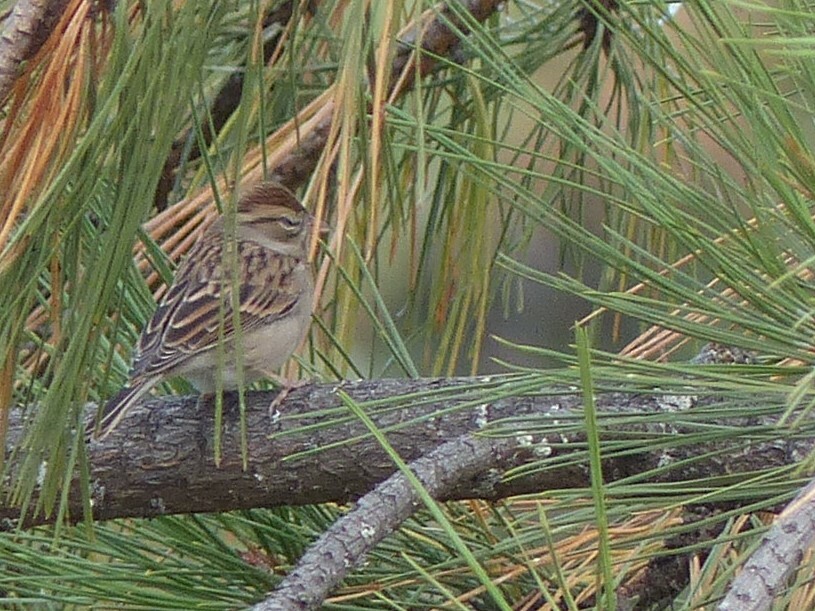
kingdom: Animalia
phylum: Chordata
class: Aves
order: Passeriformes
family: Passerellidae
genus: Spizella
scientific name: Spizella passerina
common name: Chipping sparrow
